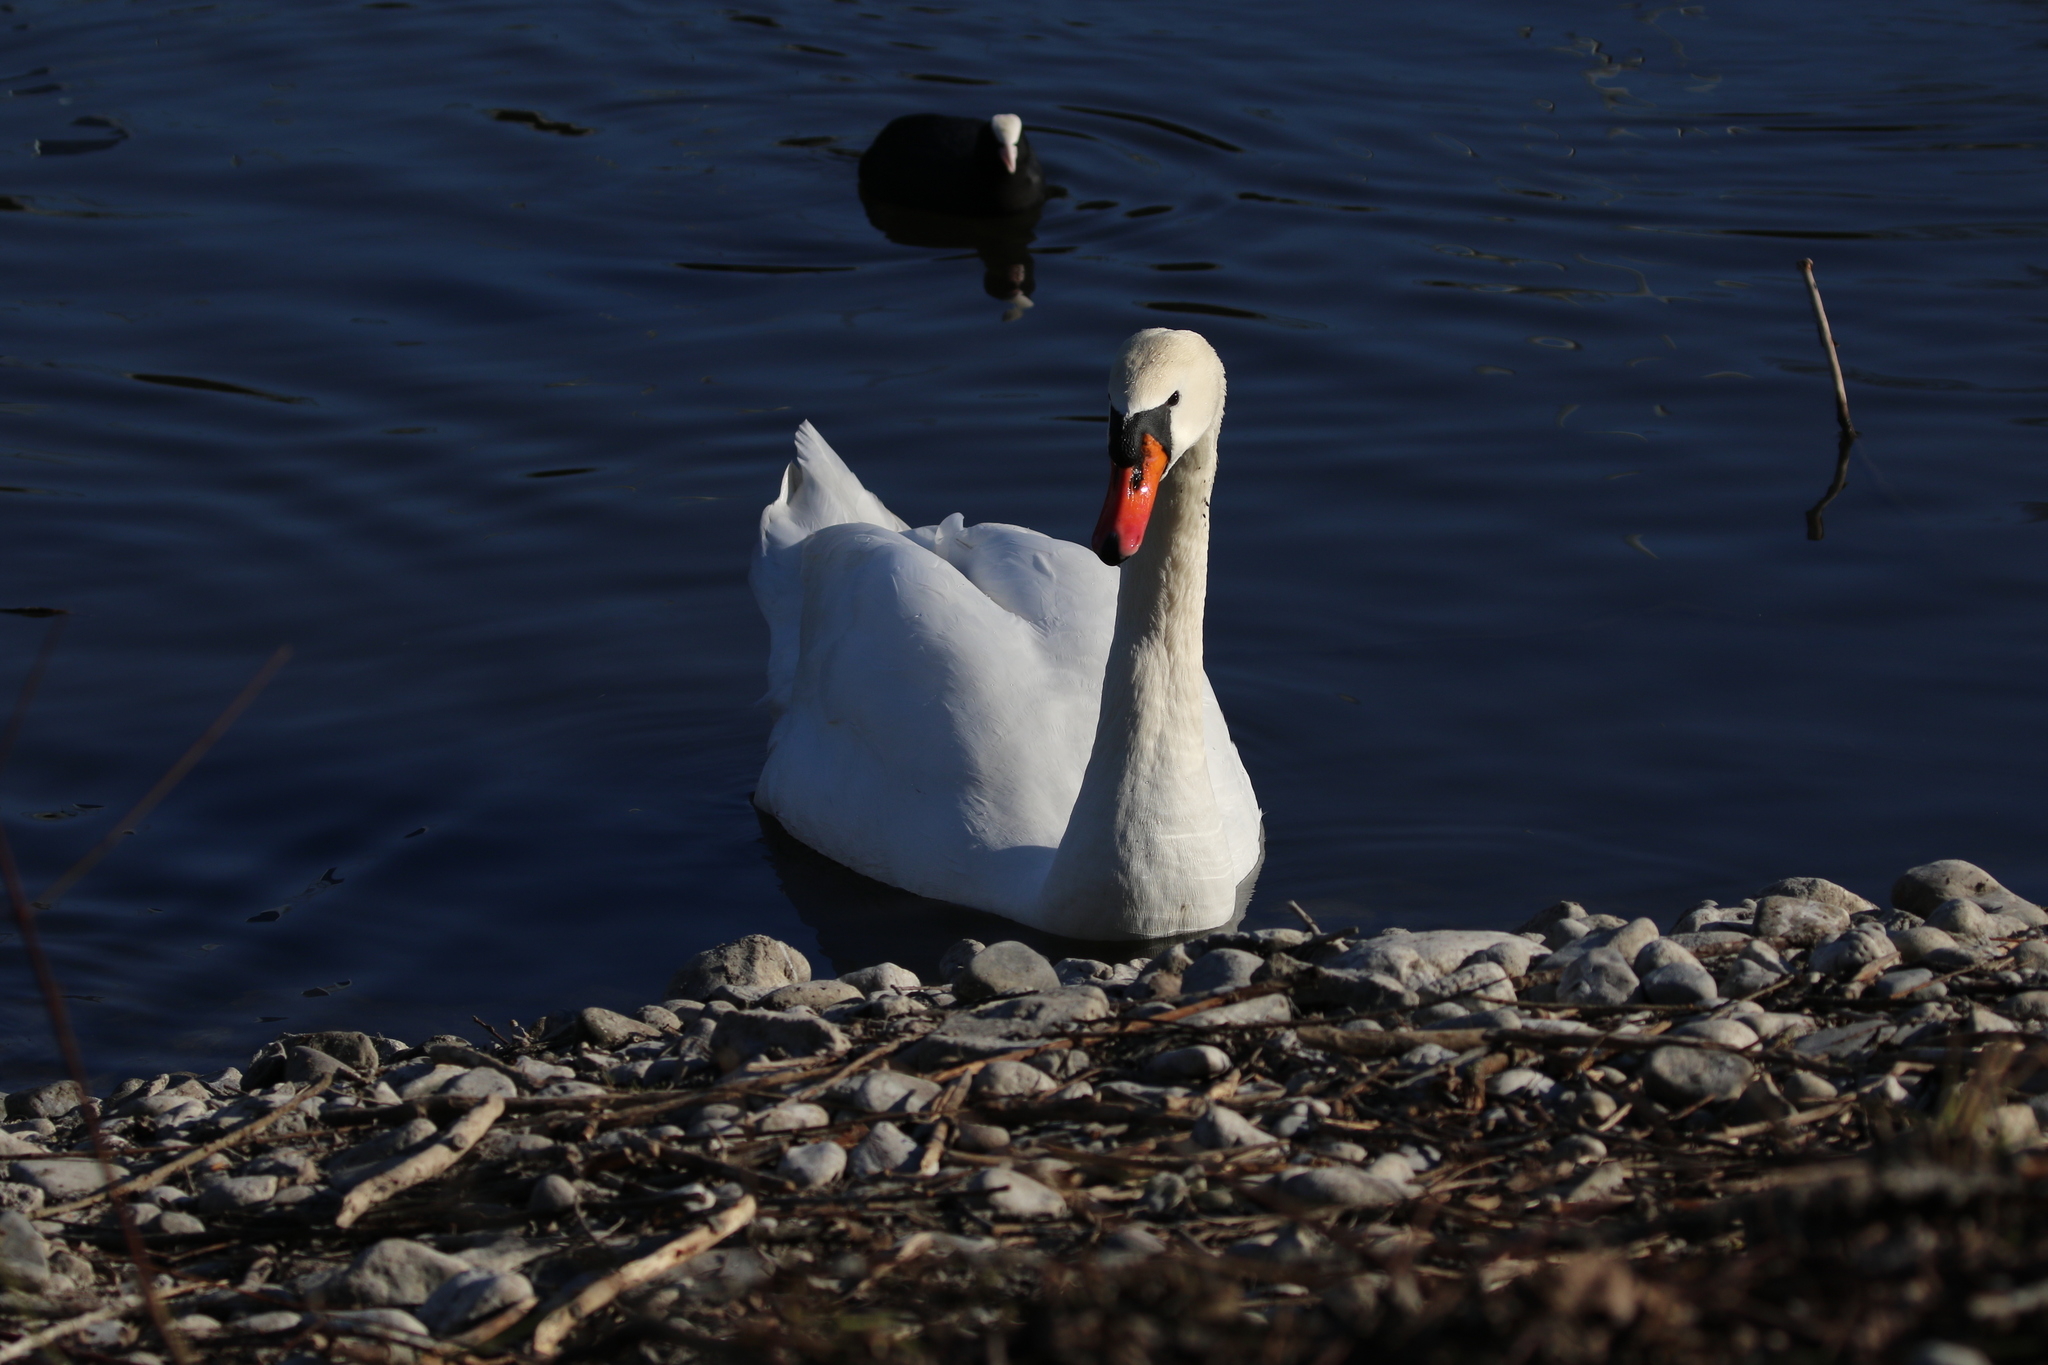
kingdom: Animalia
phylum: Chordata
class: Aves
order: Anseriformes
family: Anatidae
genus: Cygnus
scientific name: Cygnus olor
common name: Mute swan
